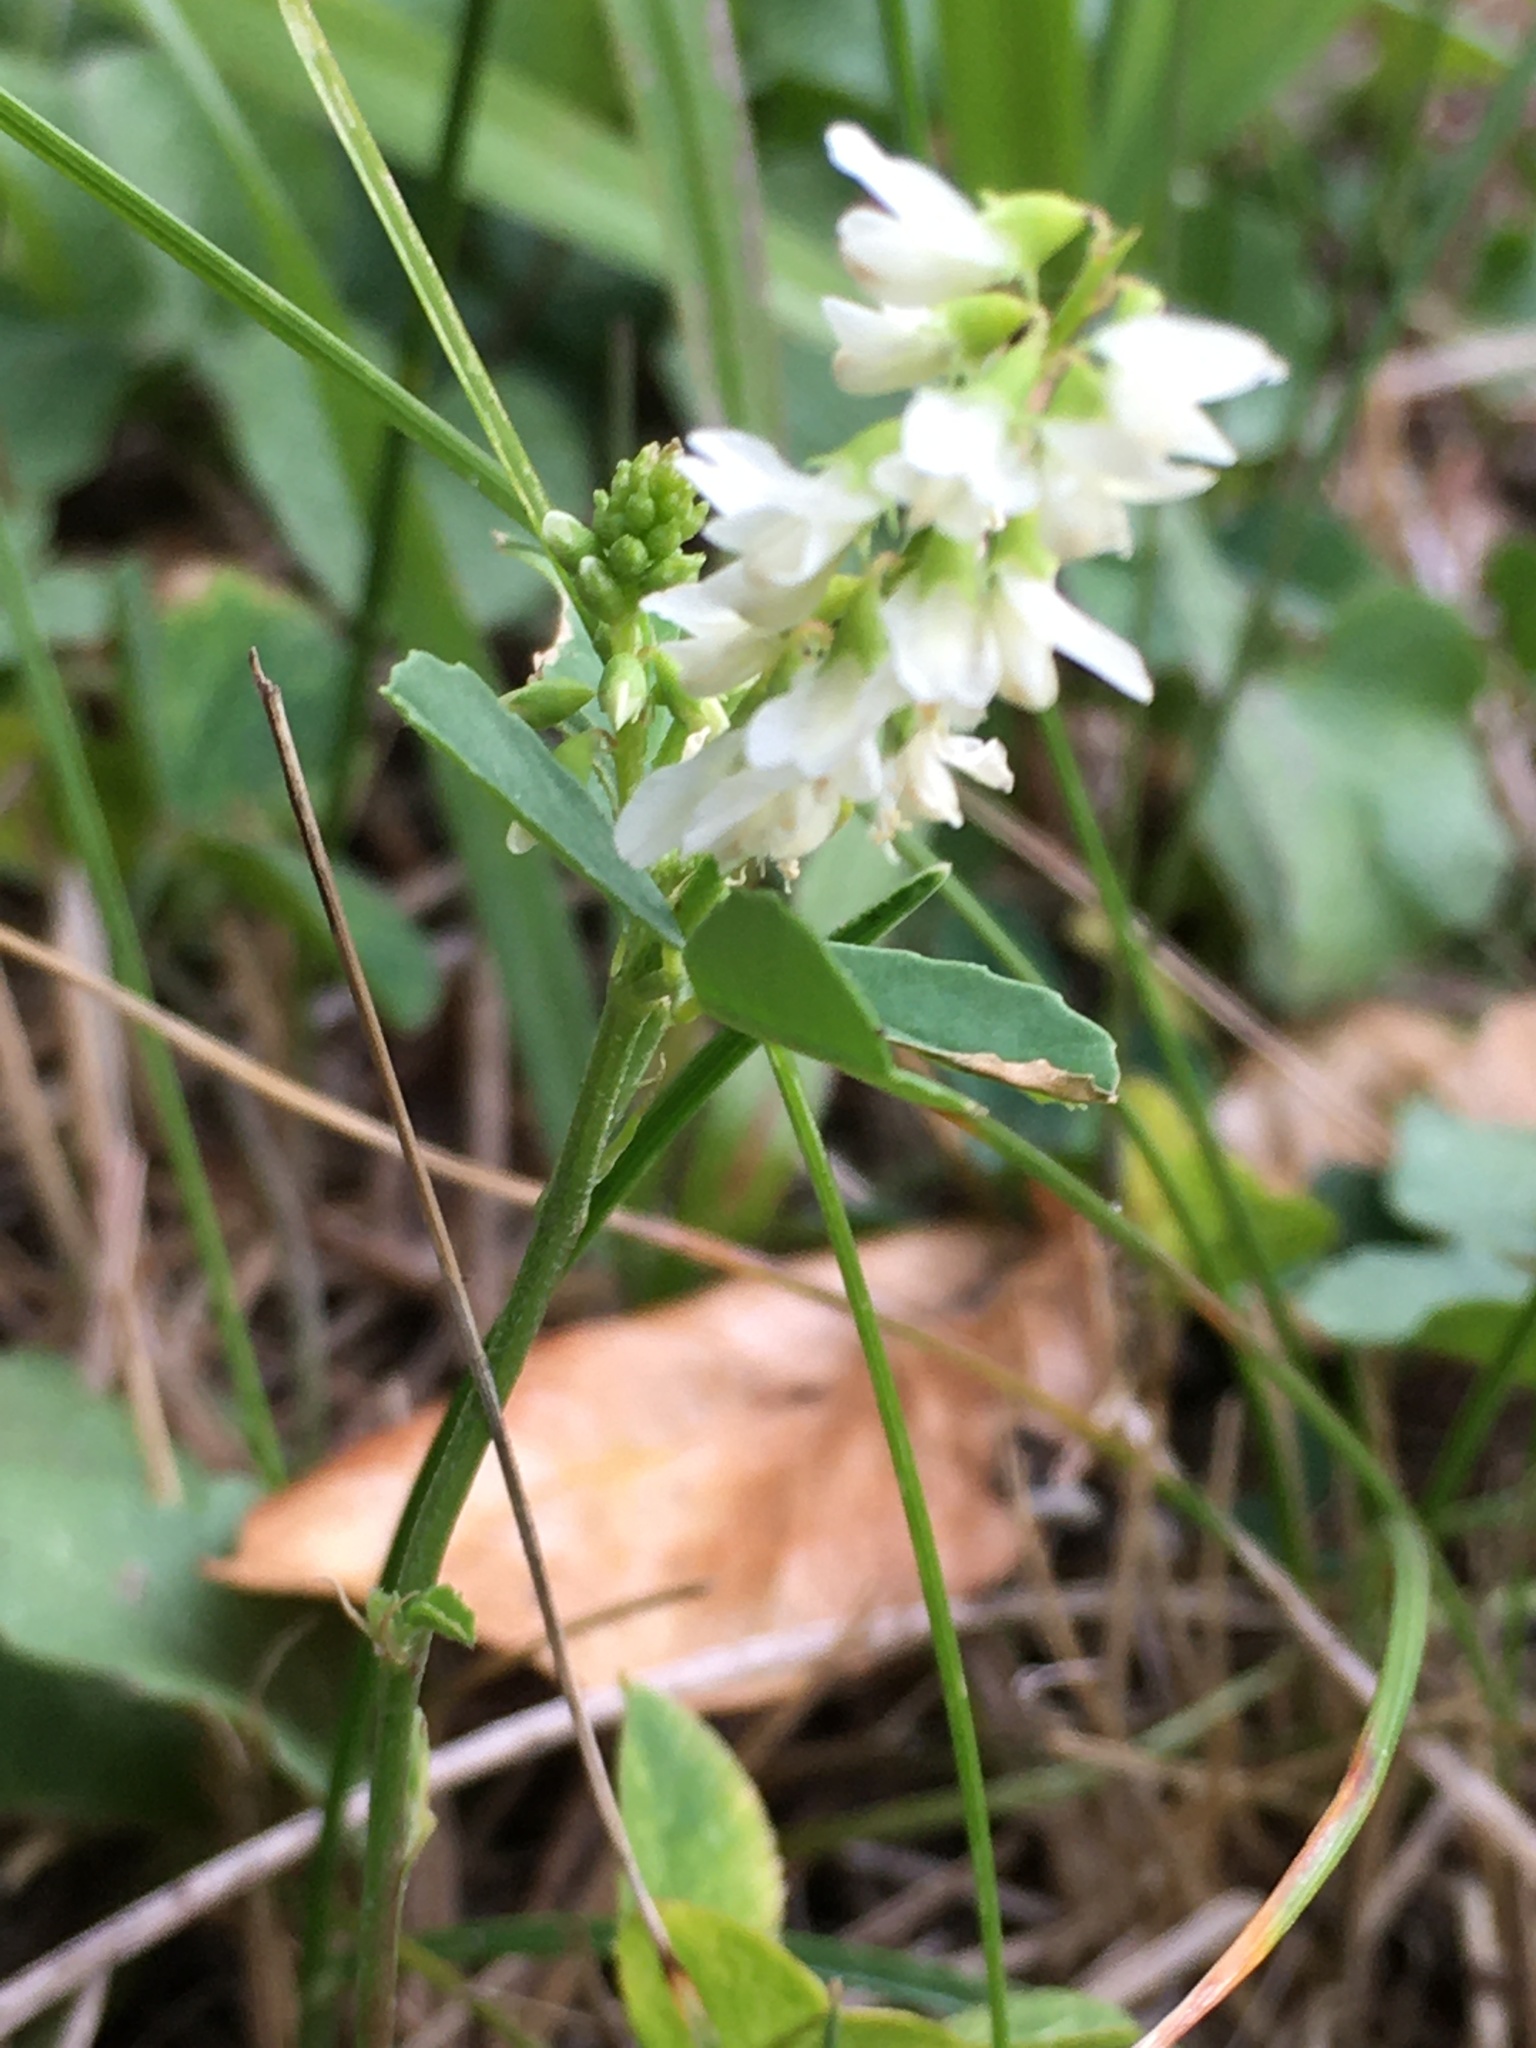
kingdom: Plantae
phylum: Tracheophyta
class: Magnoliopsida
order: Fabales
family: Fabaceae
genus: Melilotus
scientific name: Melilotus albus
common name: White melilot
